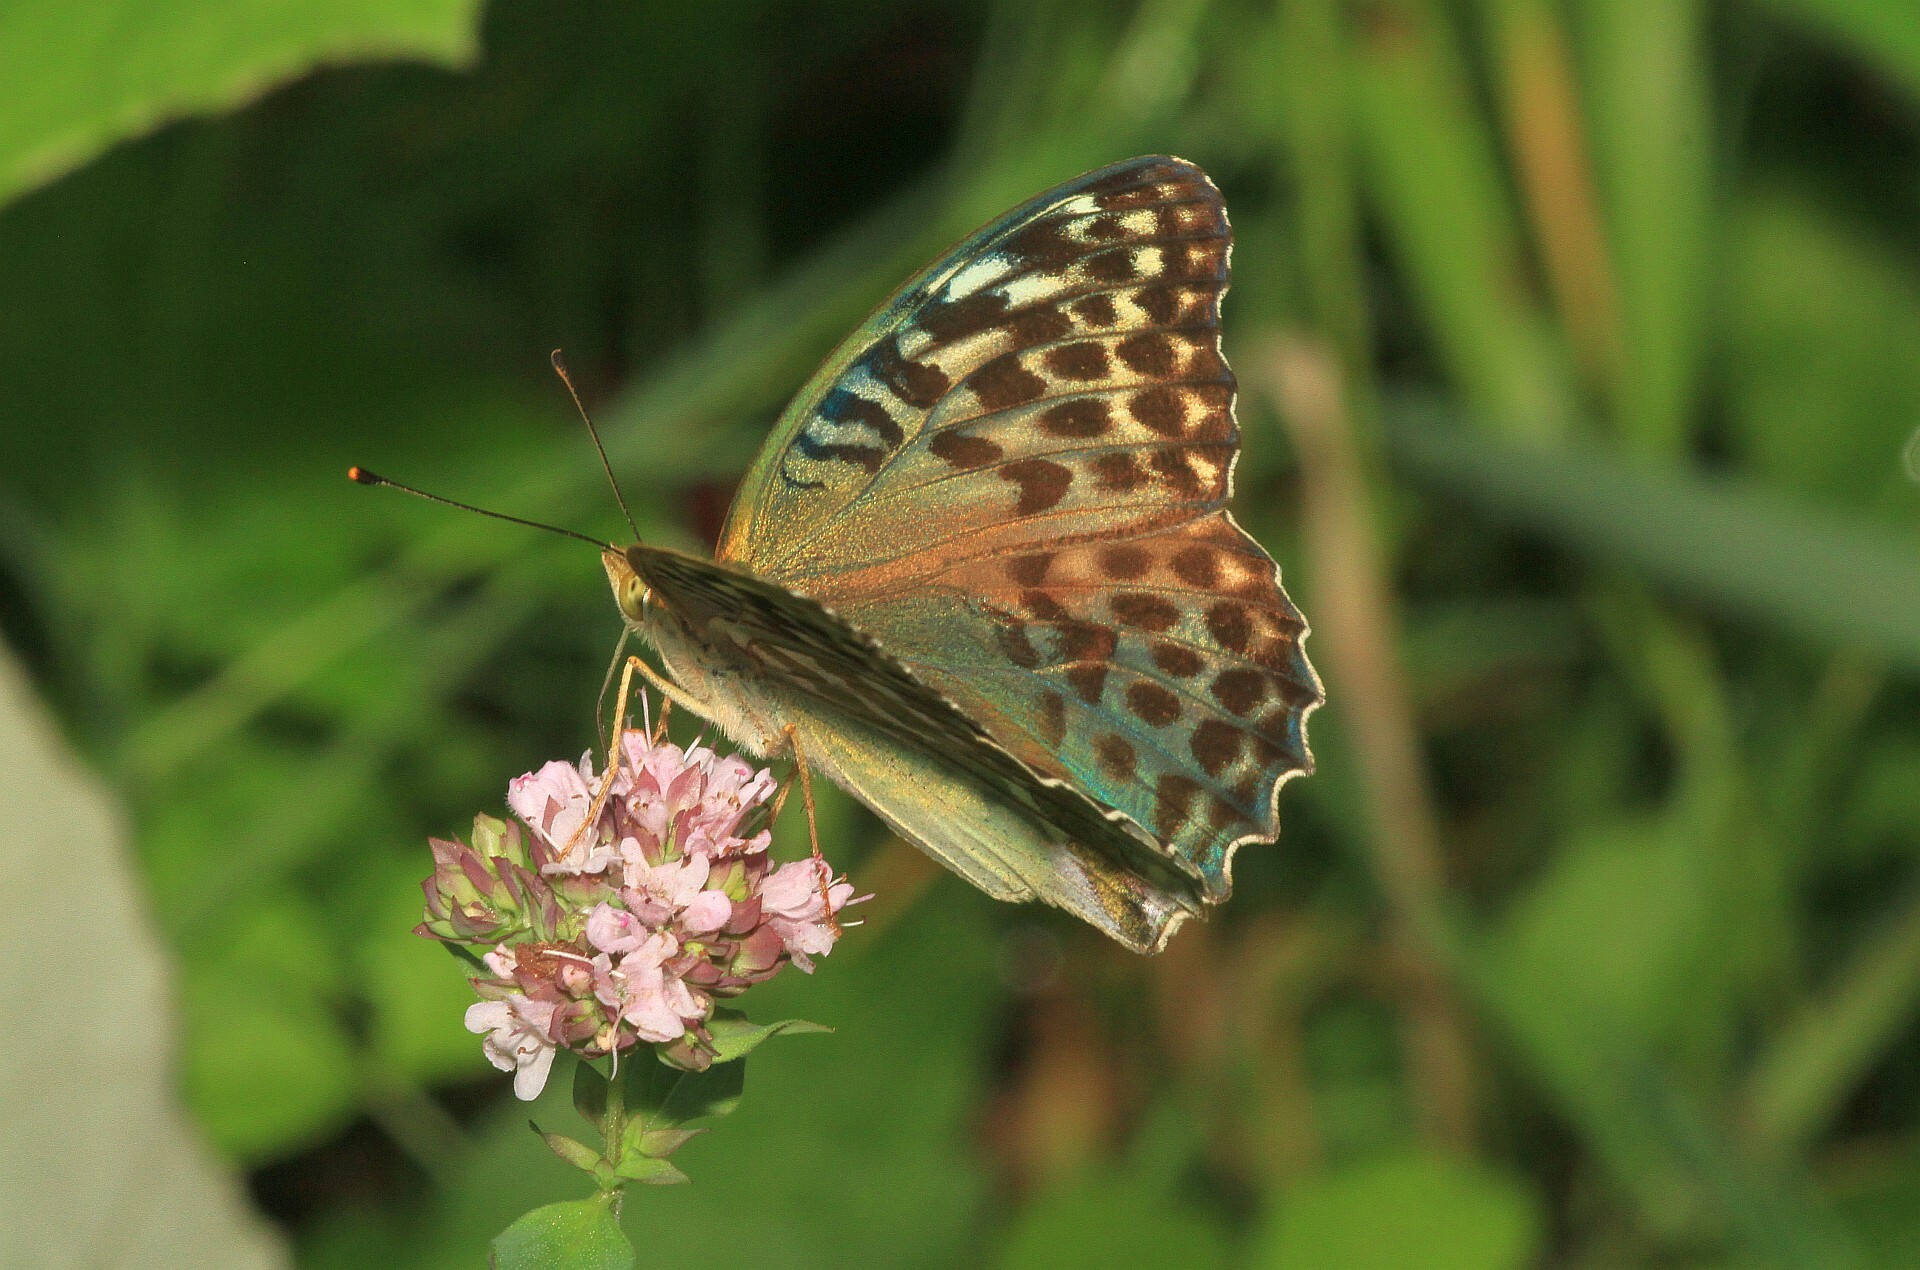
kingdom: Animalia
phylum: Arthropoda
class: Insecta
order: Lepidoptera
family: Nymphalidae
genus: Argynnis
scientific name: Argynnis paphia
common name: Silver-washed fritillary
